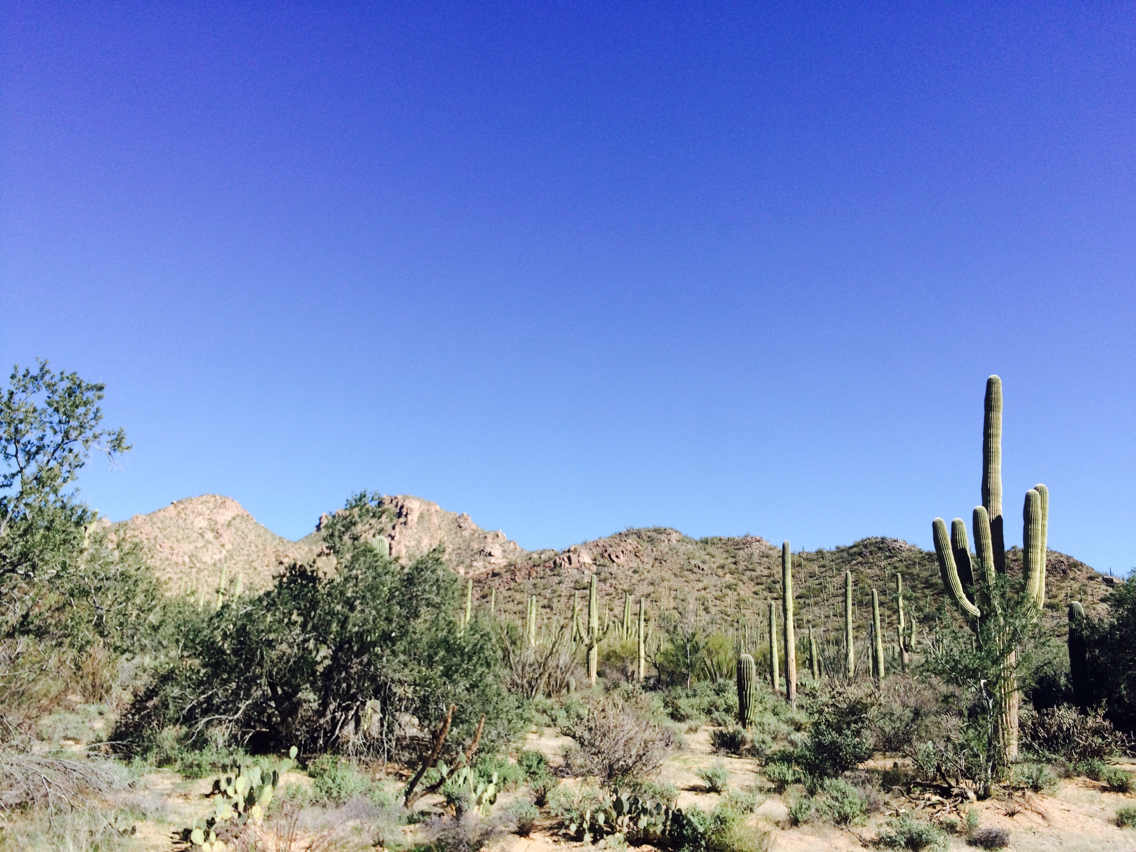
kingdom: Plantae
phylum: Tracheophyta
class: Magnoliopsida
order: Caryophyllales
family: Cactaceae
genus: Carnegiea
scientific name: Carnegiea gigantea
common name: Saguaro
